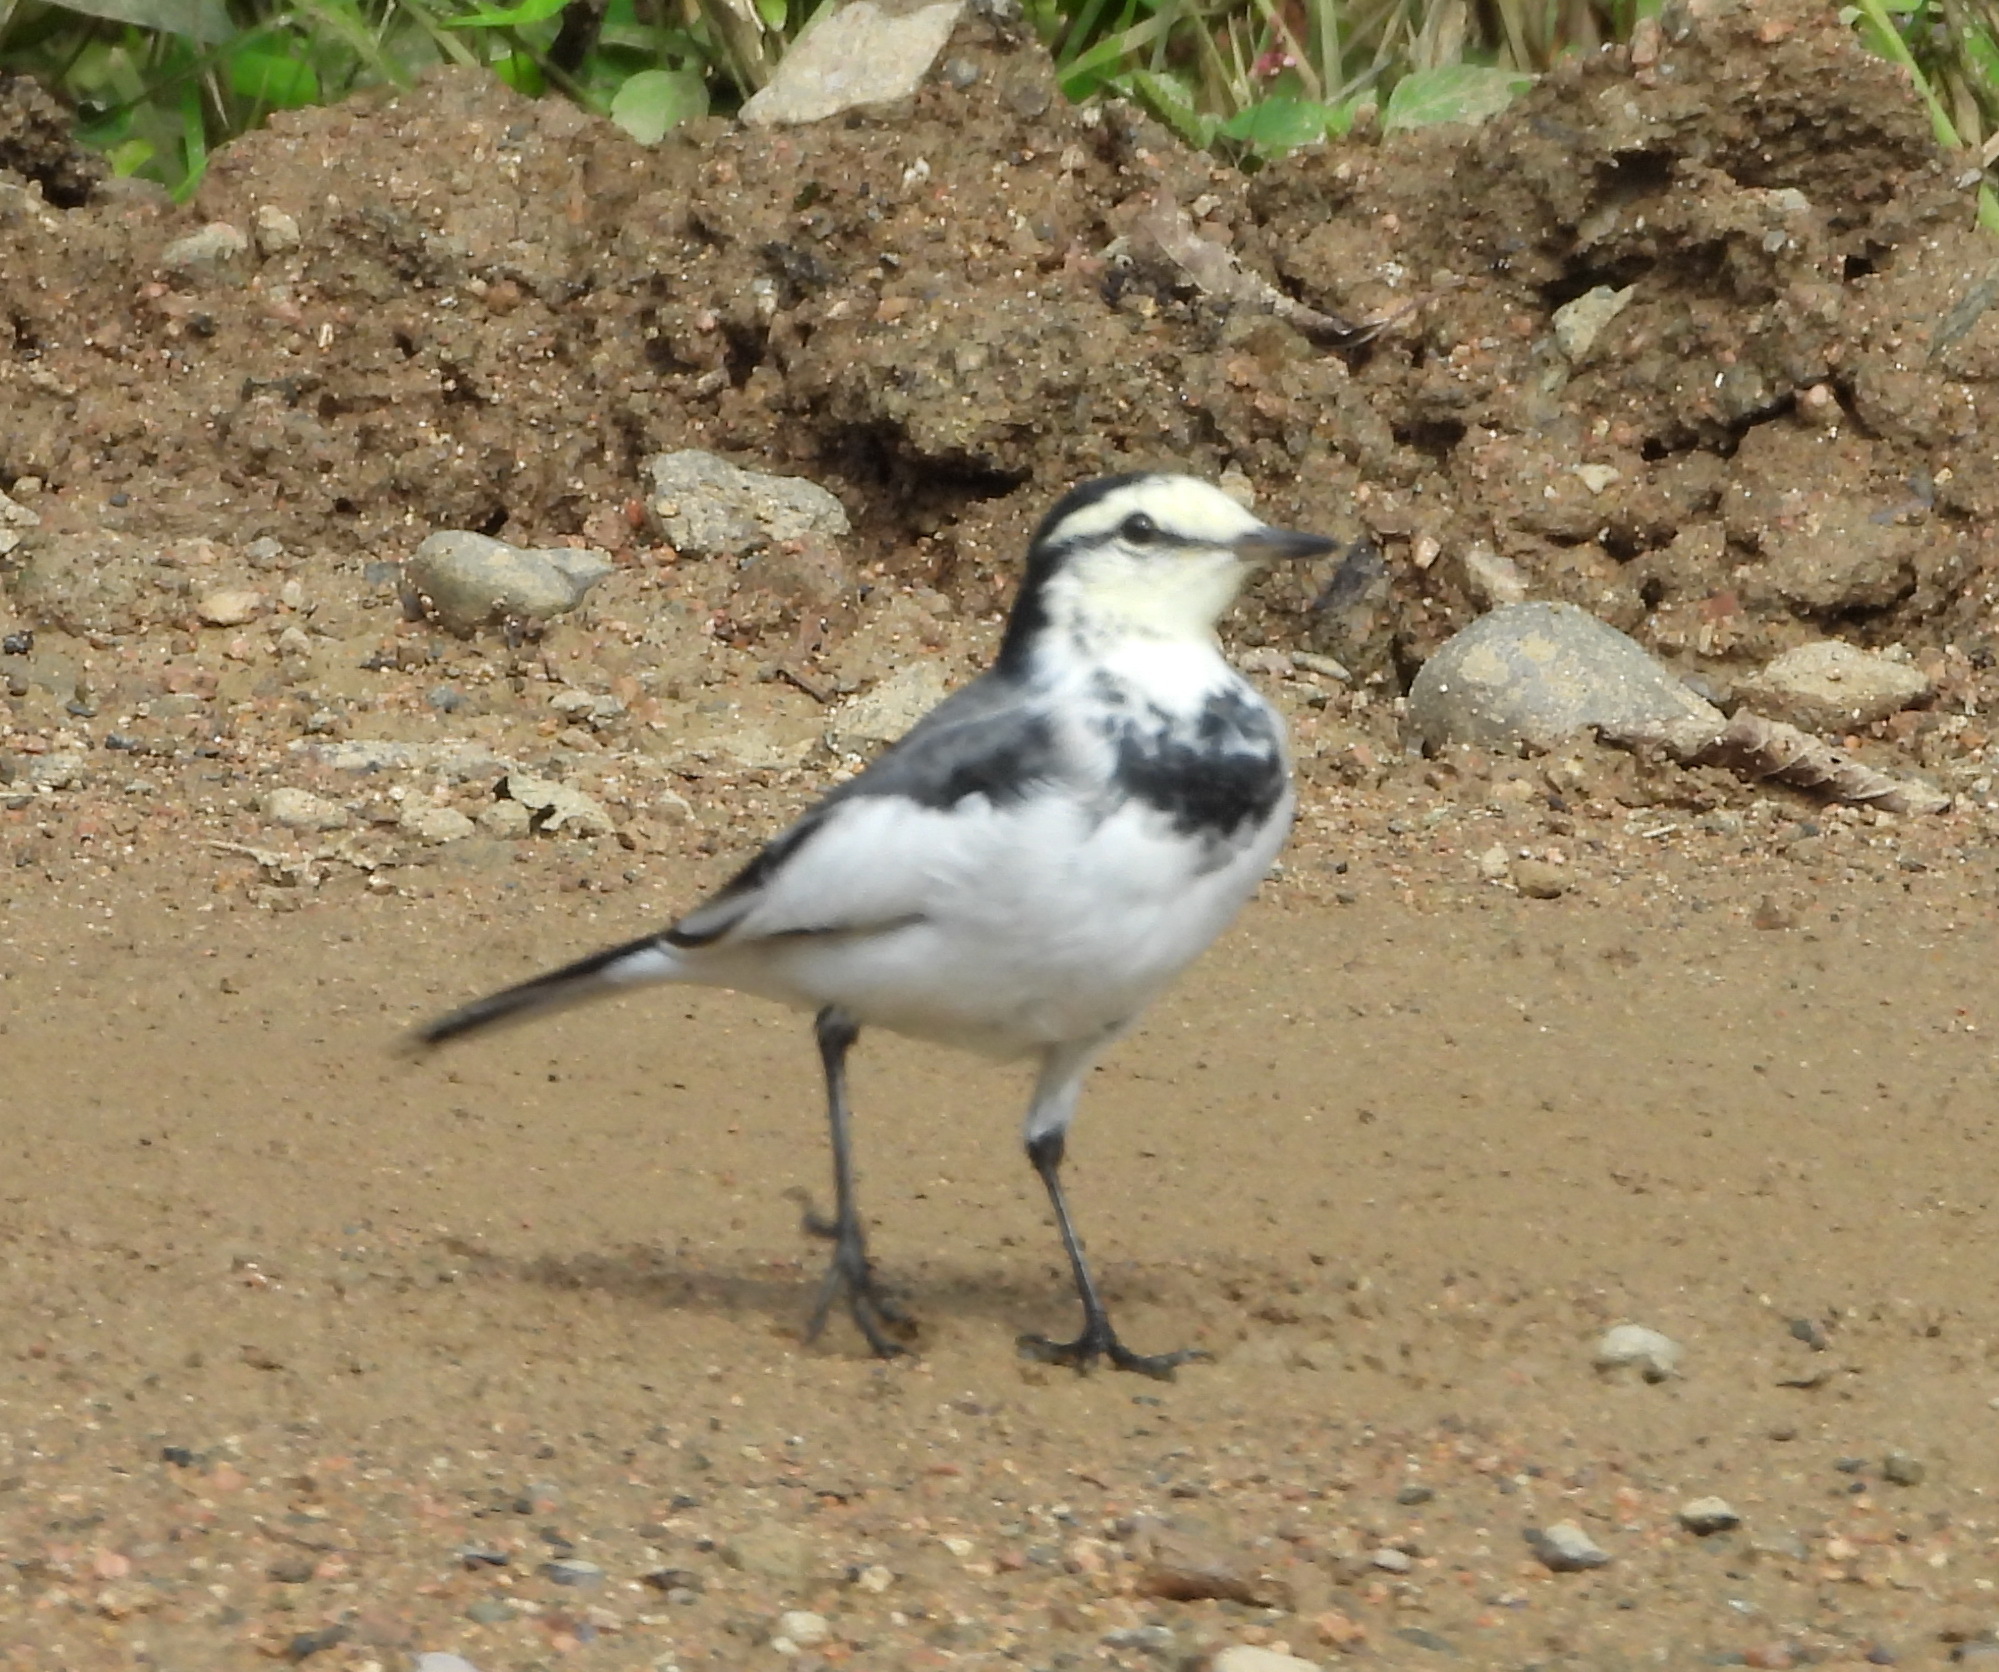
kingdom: Animalia
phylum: Chordata
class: Aves
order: Passeriformes
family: Motacillidae
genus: Motacilla
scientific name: Motacilla alba
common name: White wagtail
